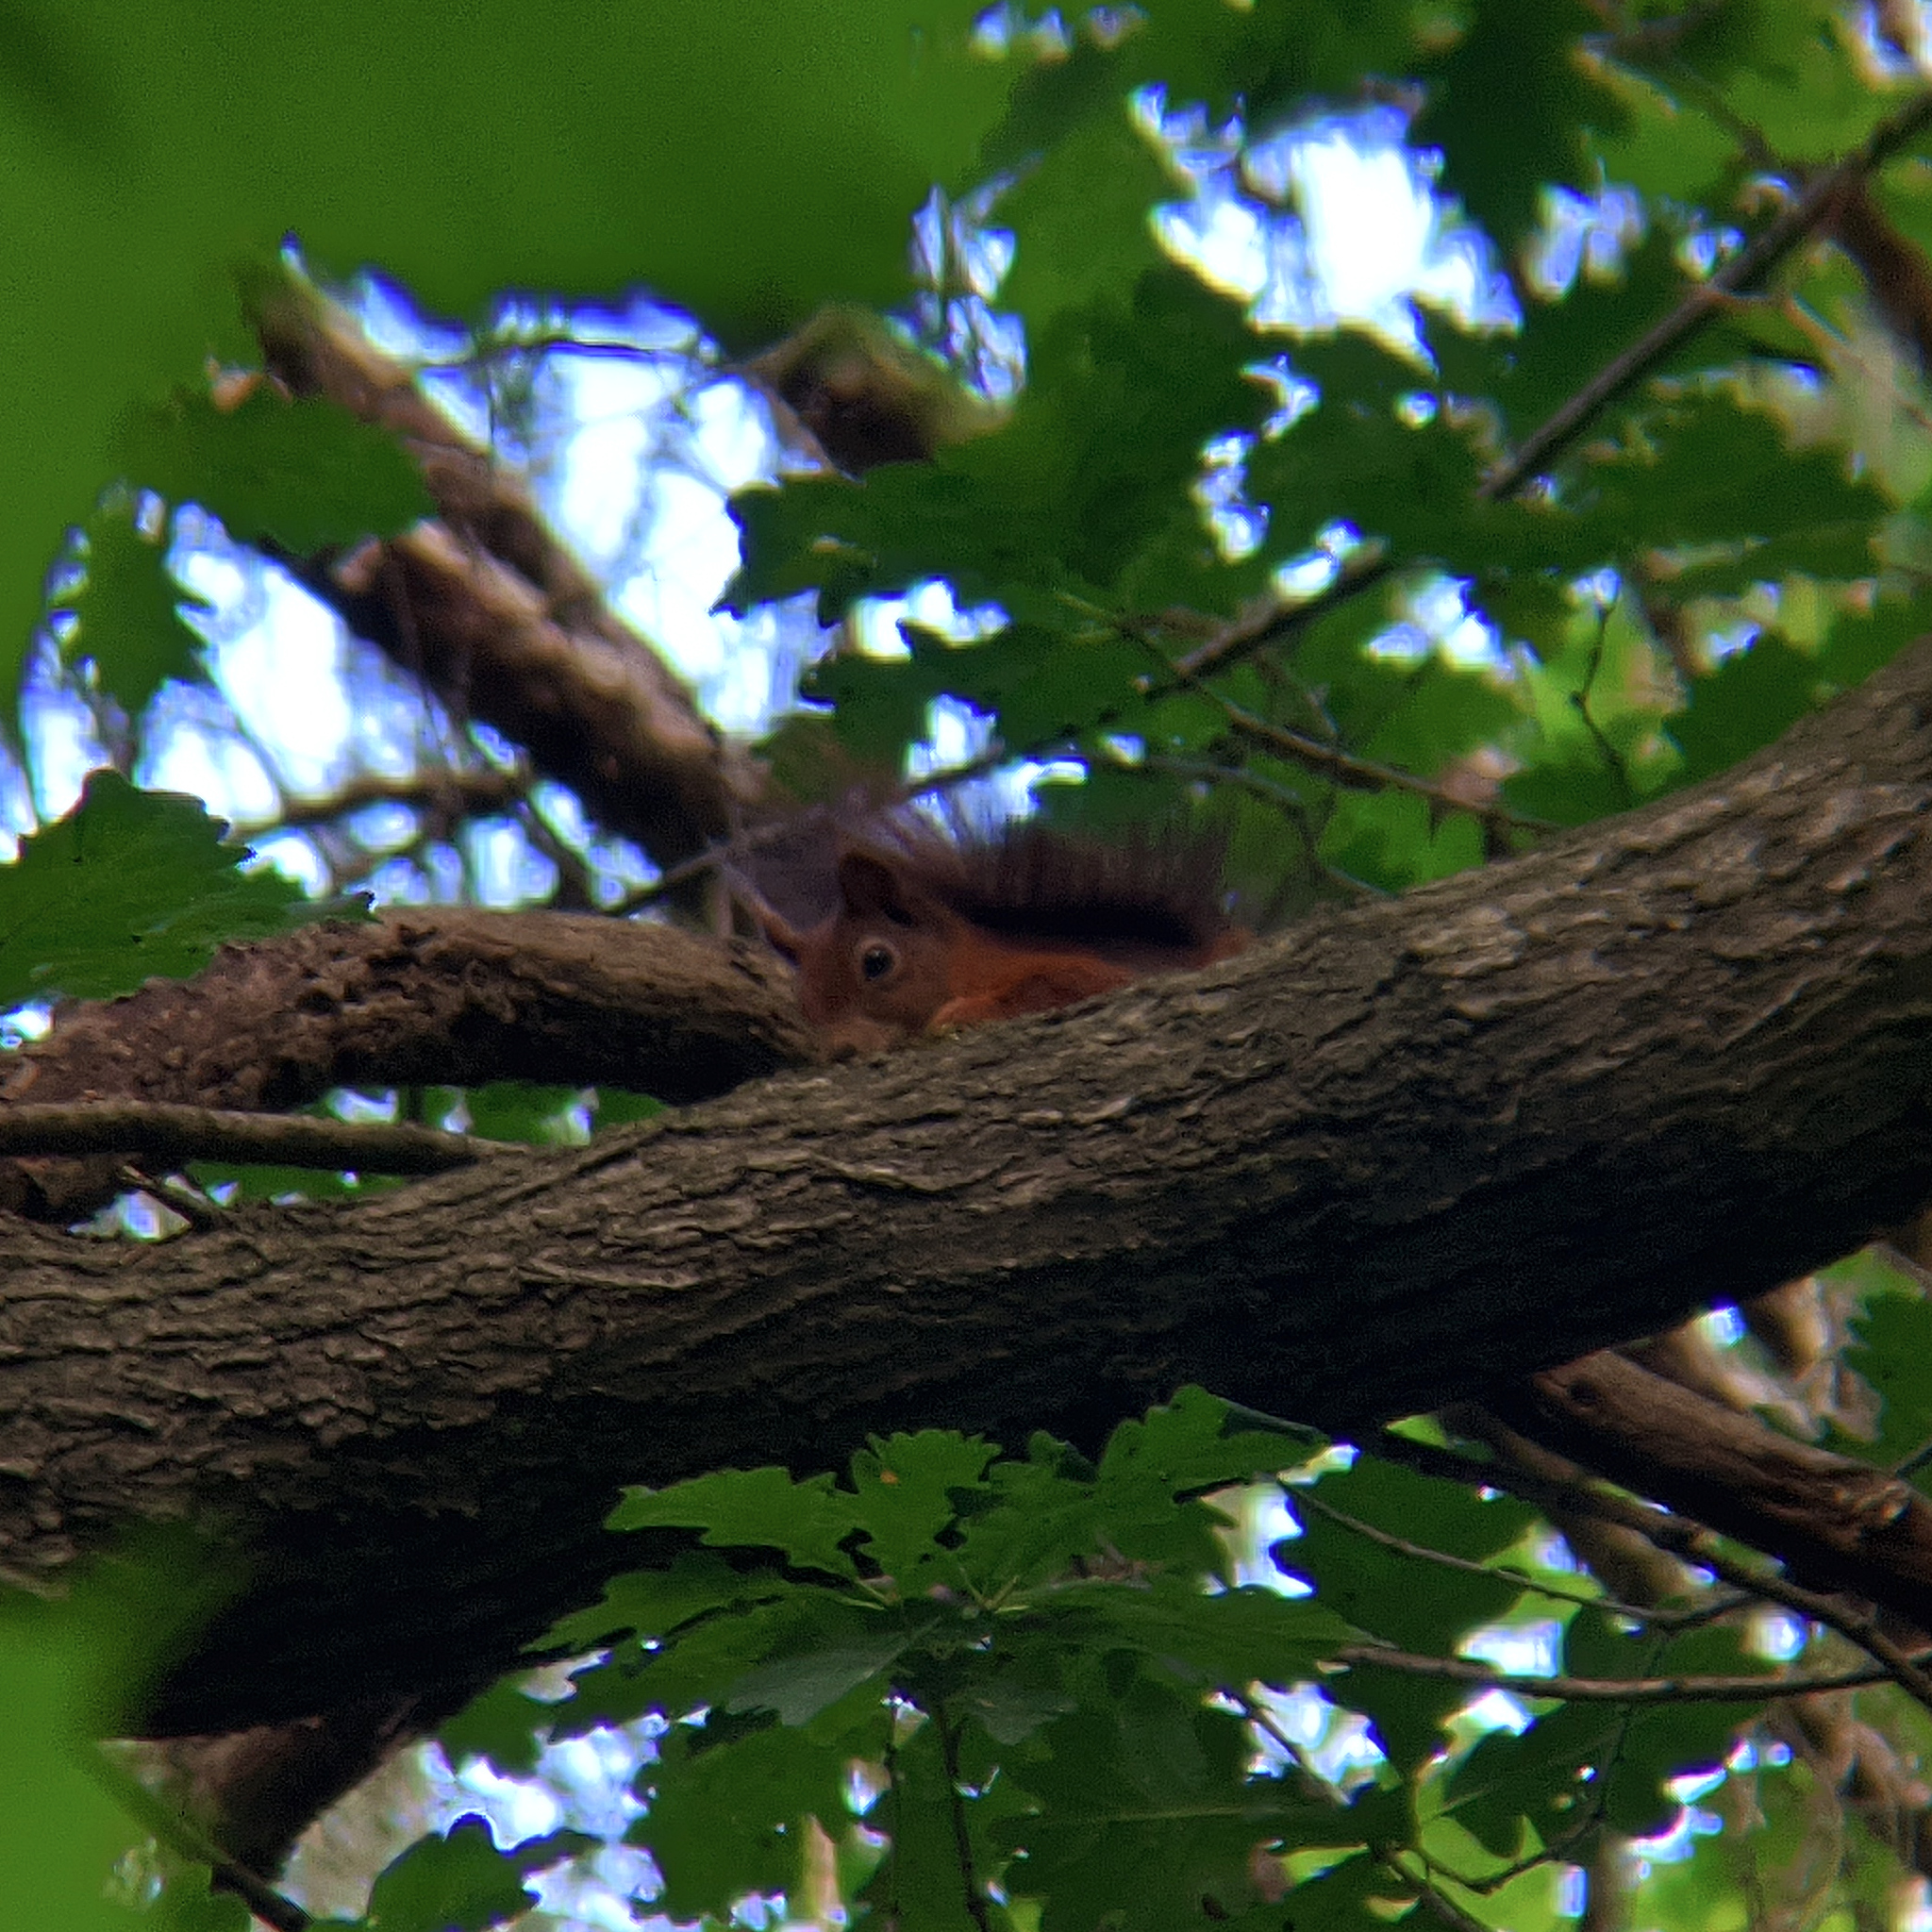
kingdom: Animalia
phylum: Chordata
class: Mammalia
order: Rodentia
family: Sciuridae
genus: Sciurus
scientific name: Sciurus vulgaris
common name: Eurasian red squirrel
